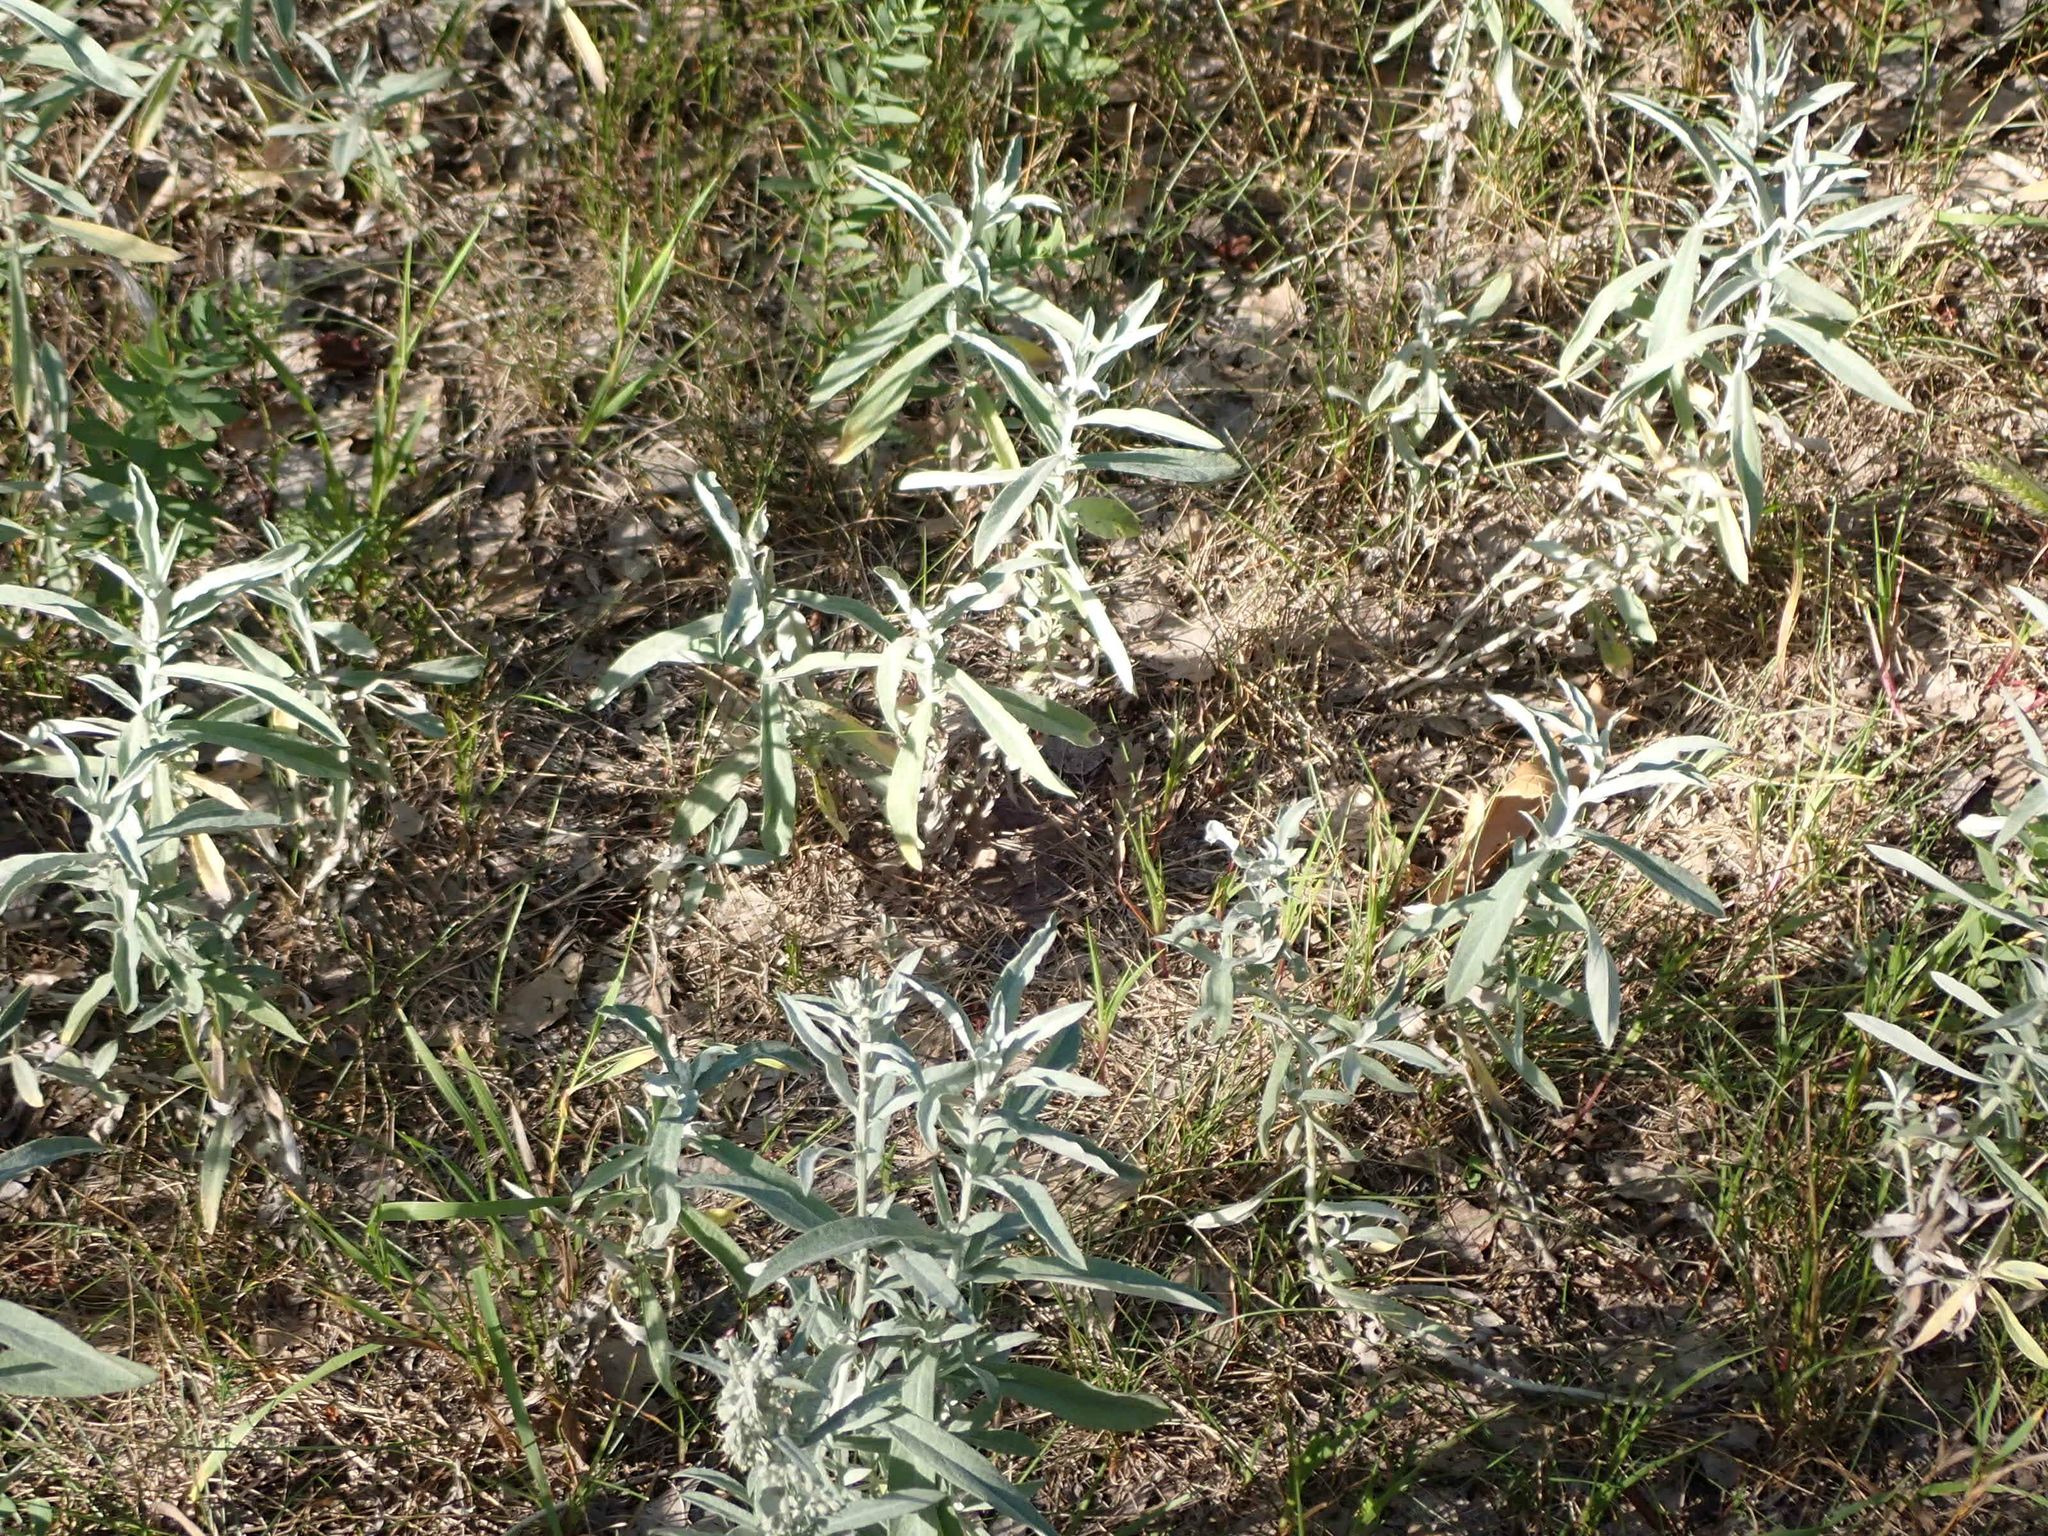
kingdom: Plantae
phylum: Tracheophyta
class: Magnoliopsida
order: Asterales
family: Asteraceae
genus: Artemisia
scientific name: Artemisia ludoviciana
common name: Western mugwort
